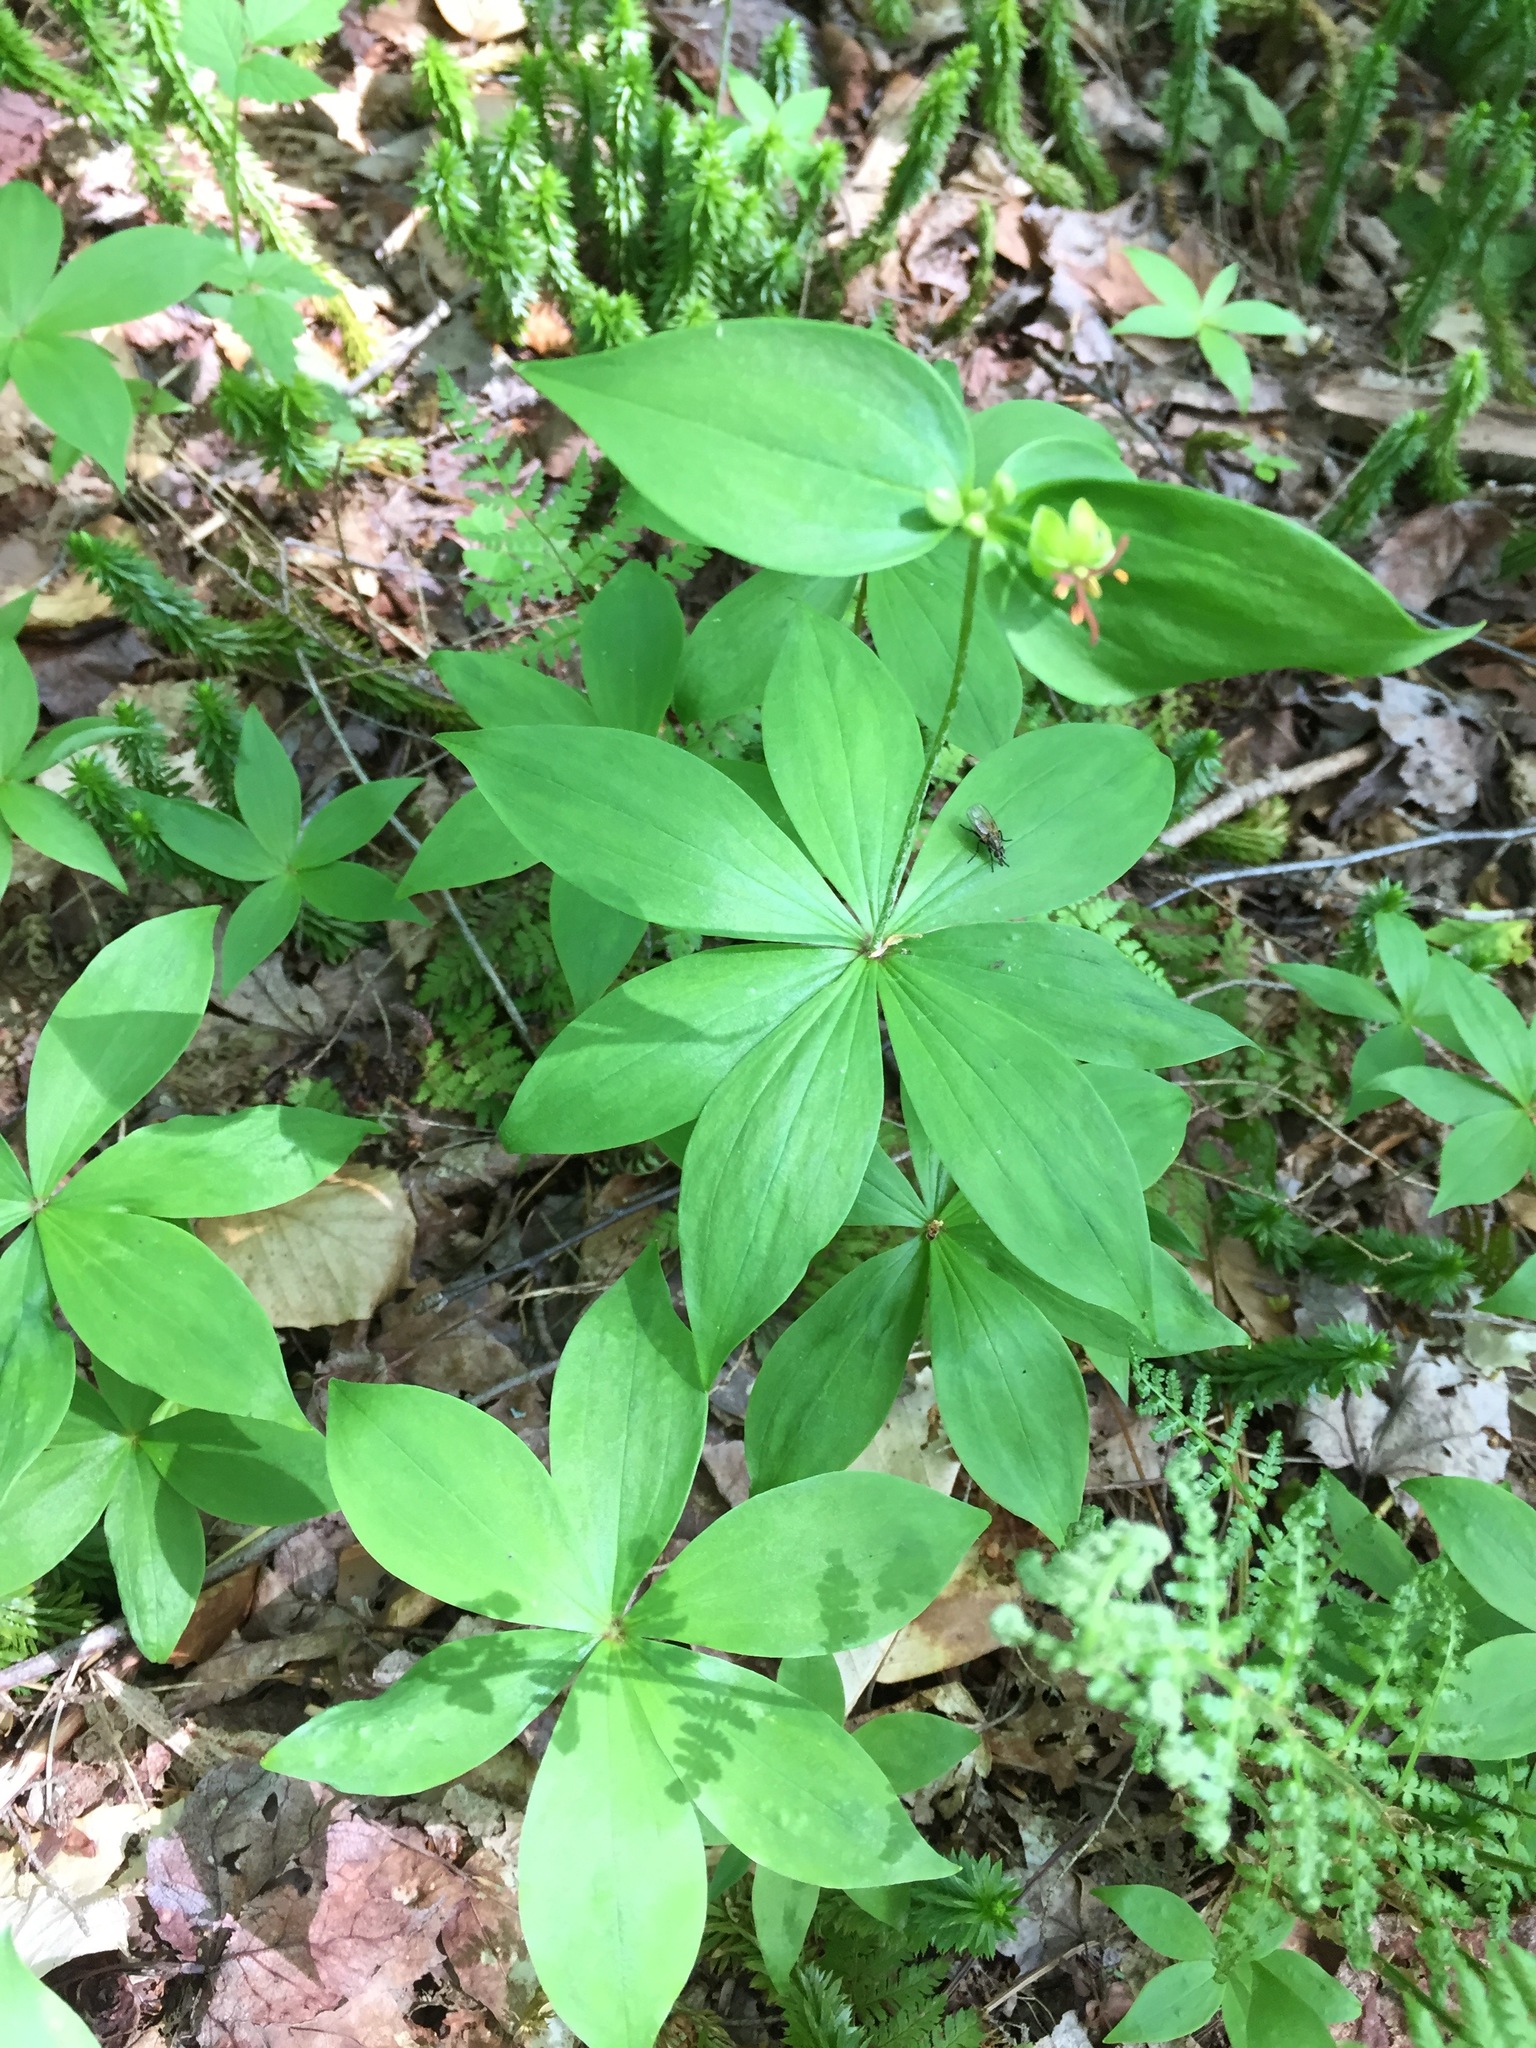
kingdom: Plantae
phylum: Tracheophyta
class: Liliopsida
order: Liliales
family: Liliaceae
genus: Medeola
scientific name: Medeola virginiana
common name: Indian cucumber-root
